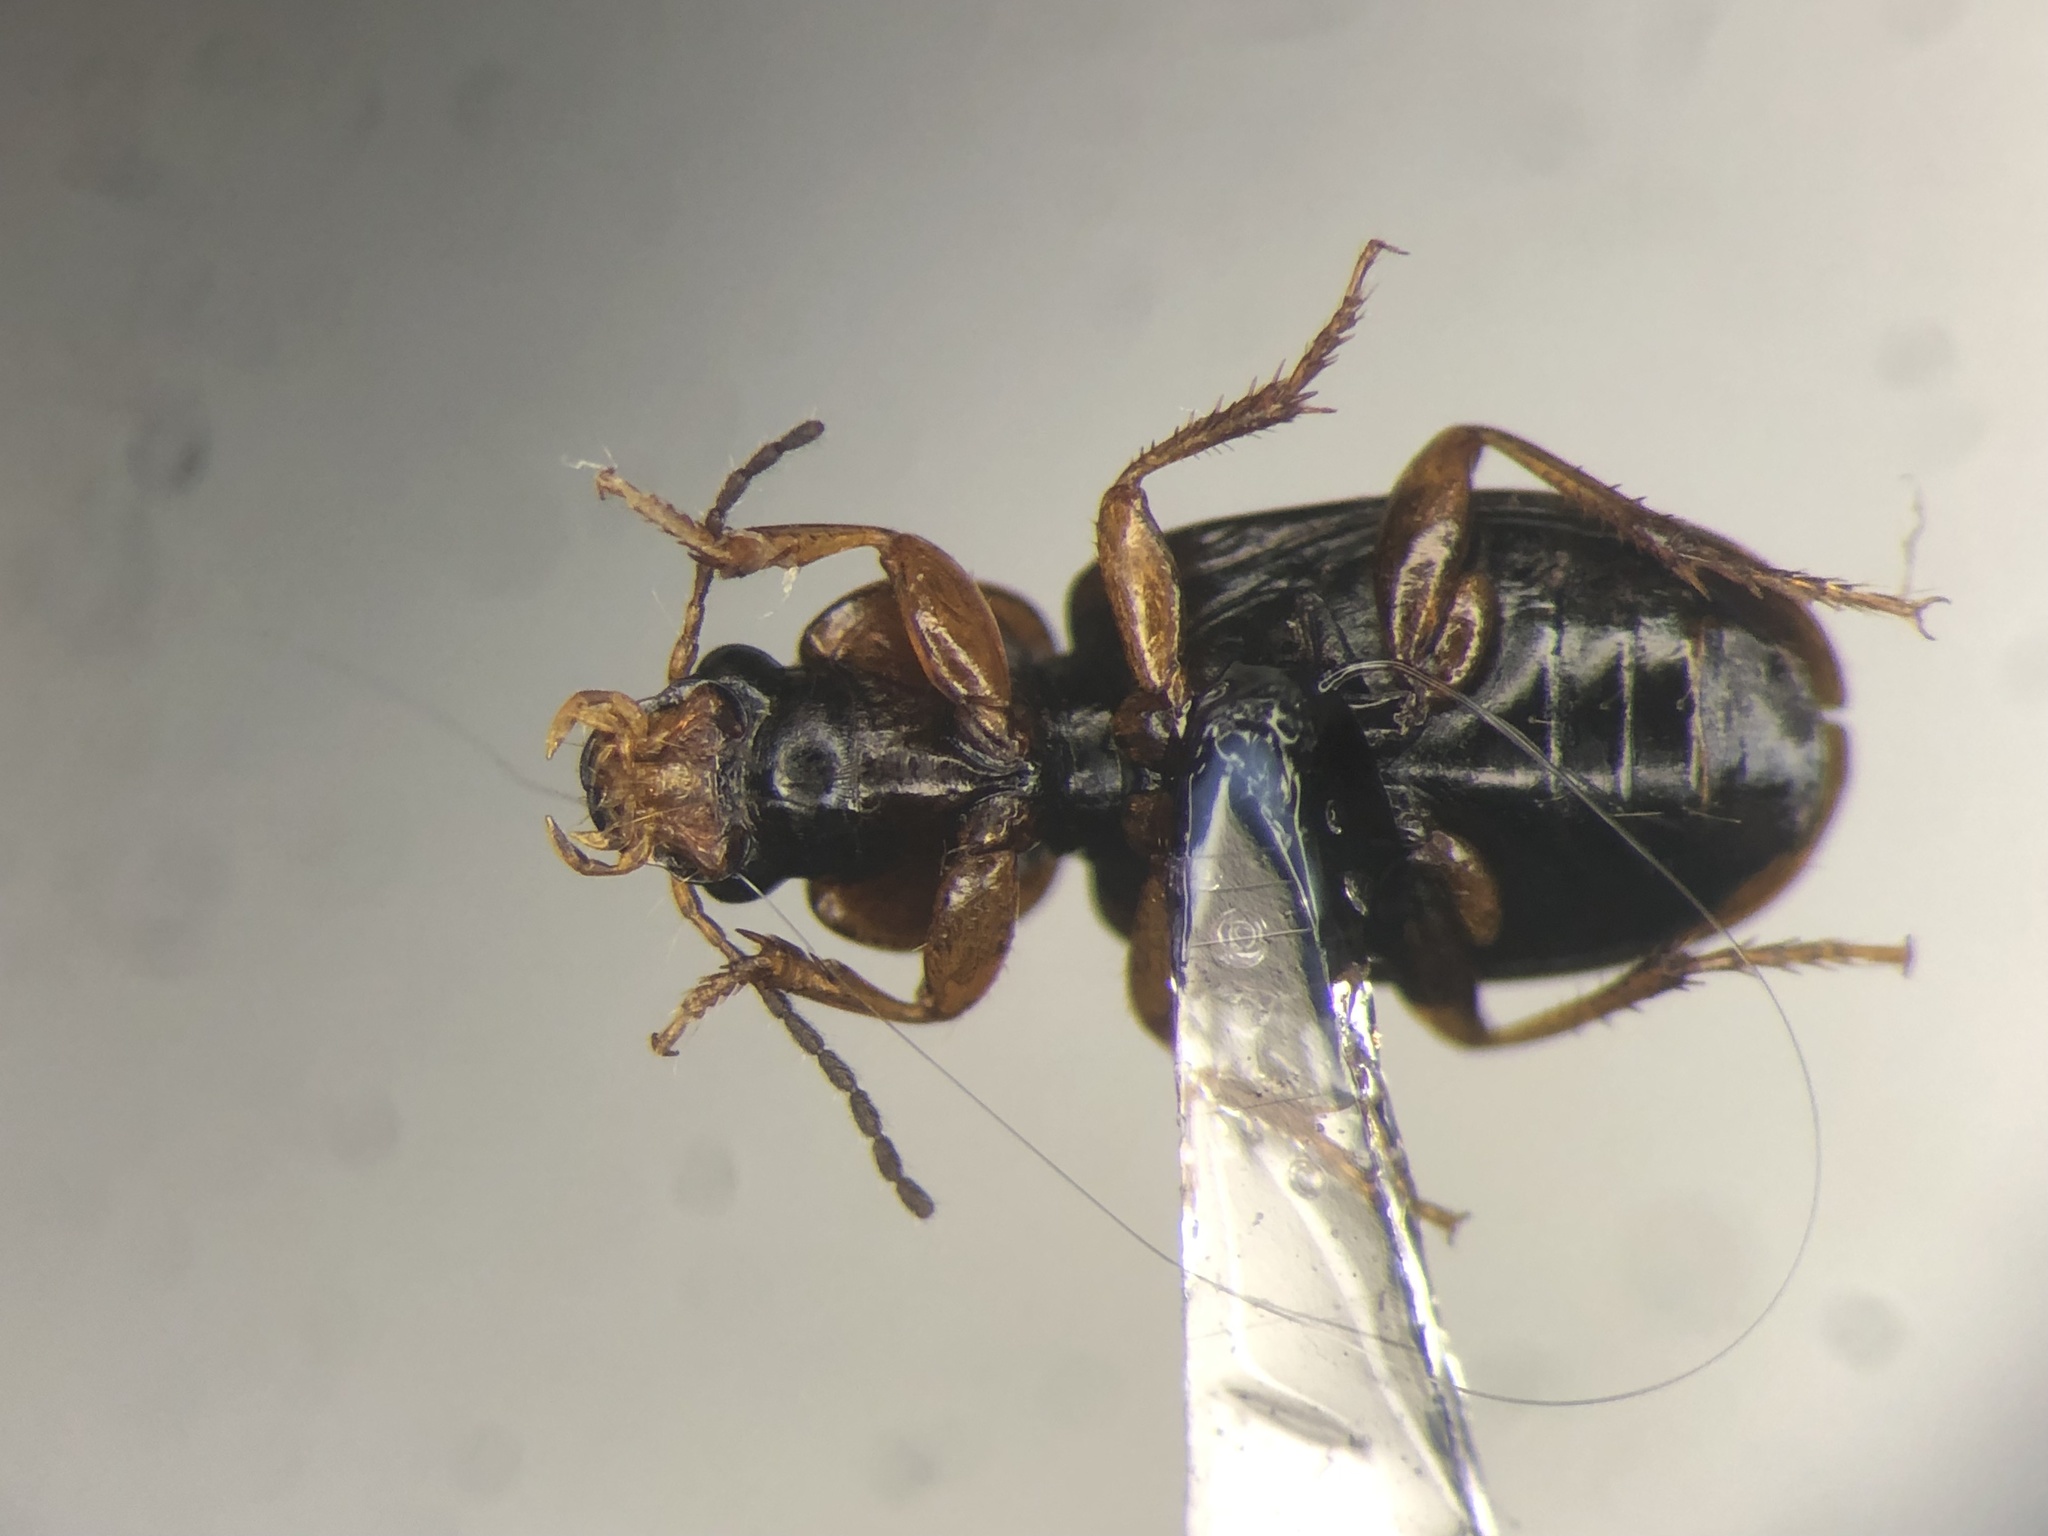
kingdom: Animalia
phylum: Arthropoda
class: Insecta
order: Coleoptera
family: Carabidae
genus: Agonoleptus
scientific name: Agonoleptus conjunctus
